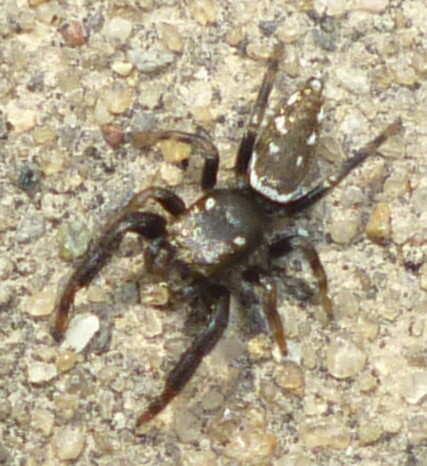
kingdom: Animalia
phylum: Arthropoda
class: Arachnida
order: Araneae
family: Salticidae
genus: Marpissa
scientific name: Marpissa formosa
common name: Short-bellied slender jumping spider
